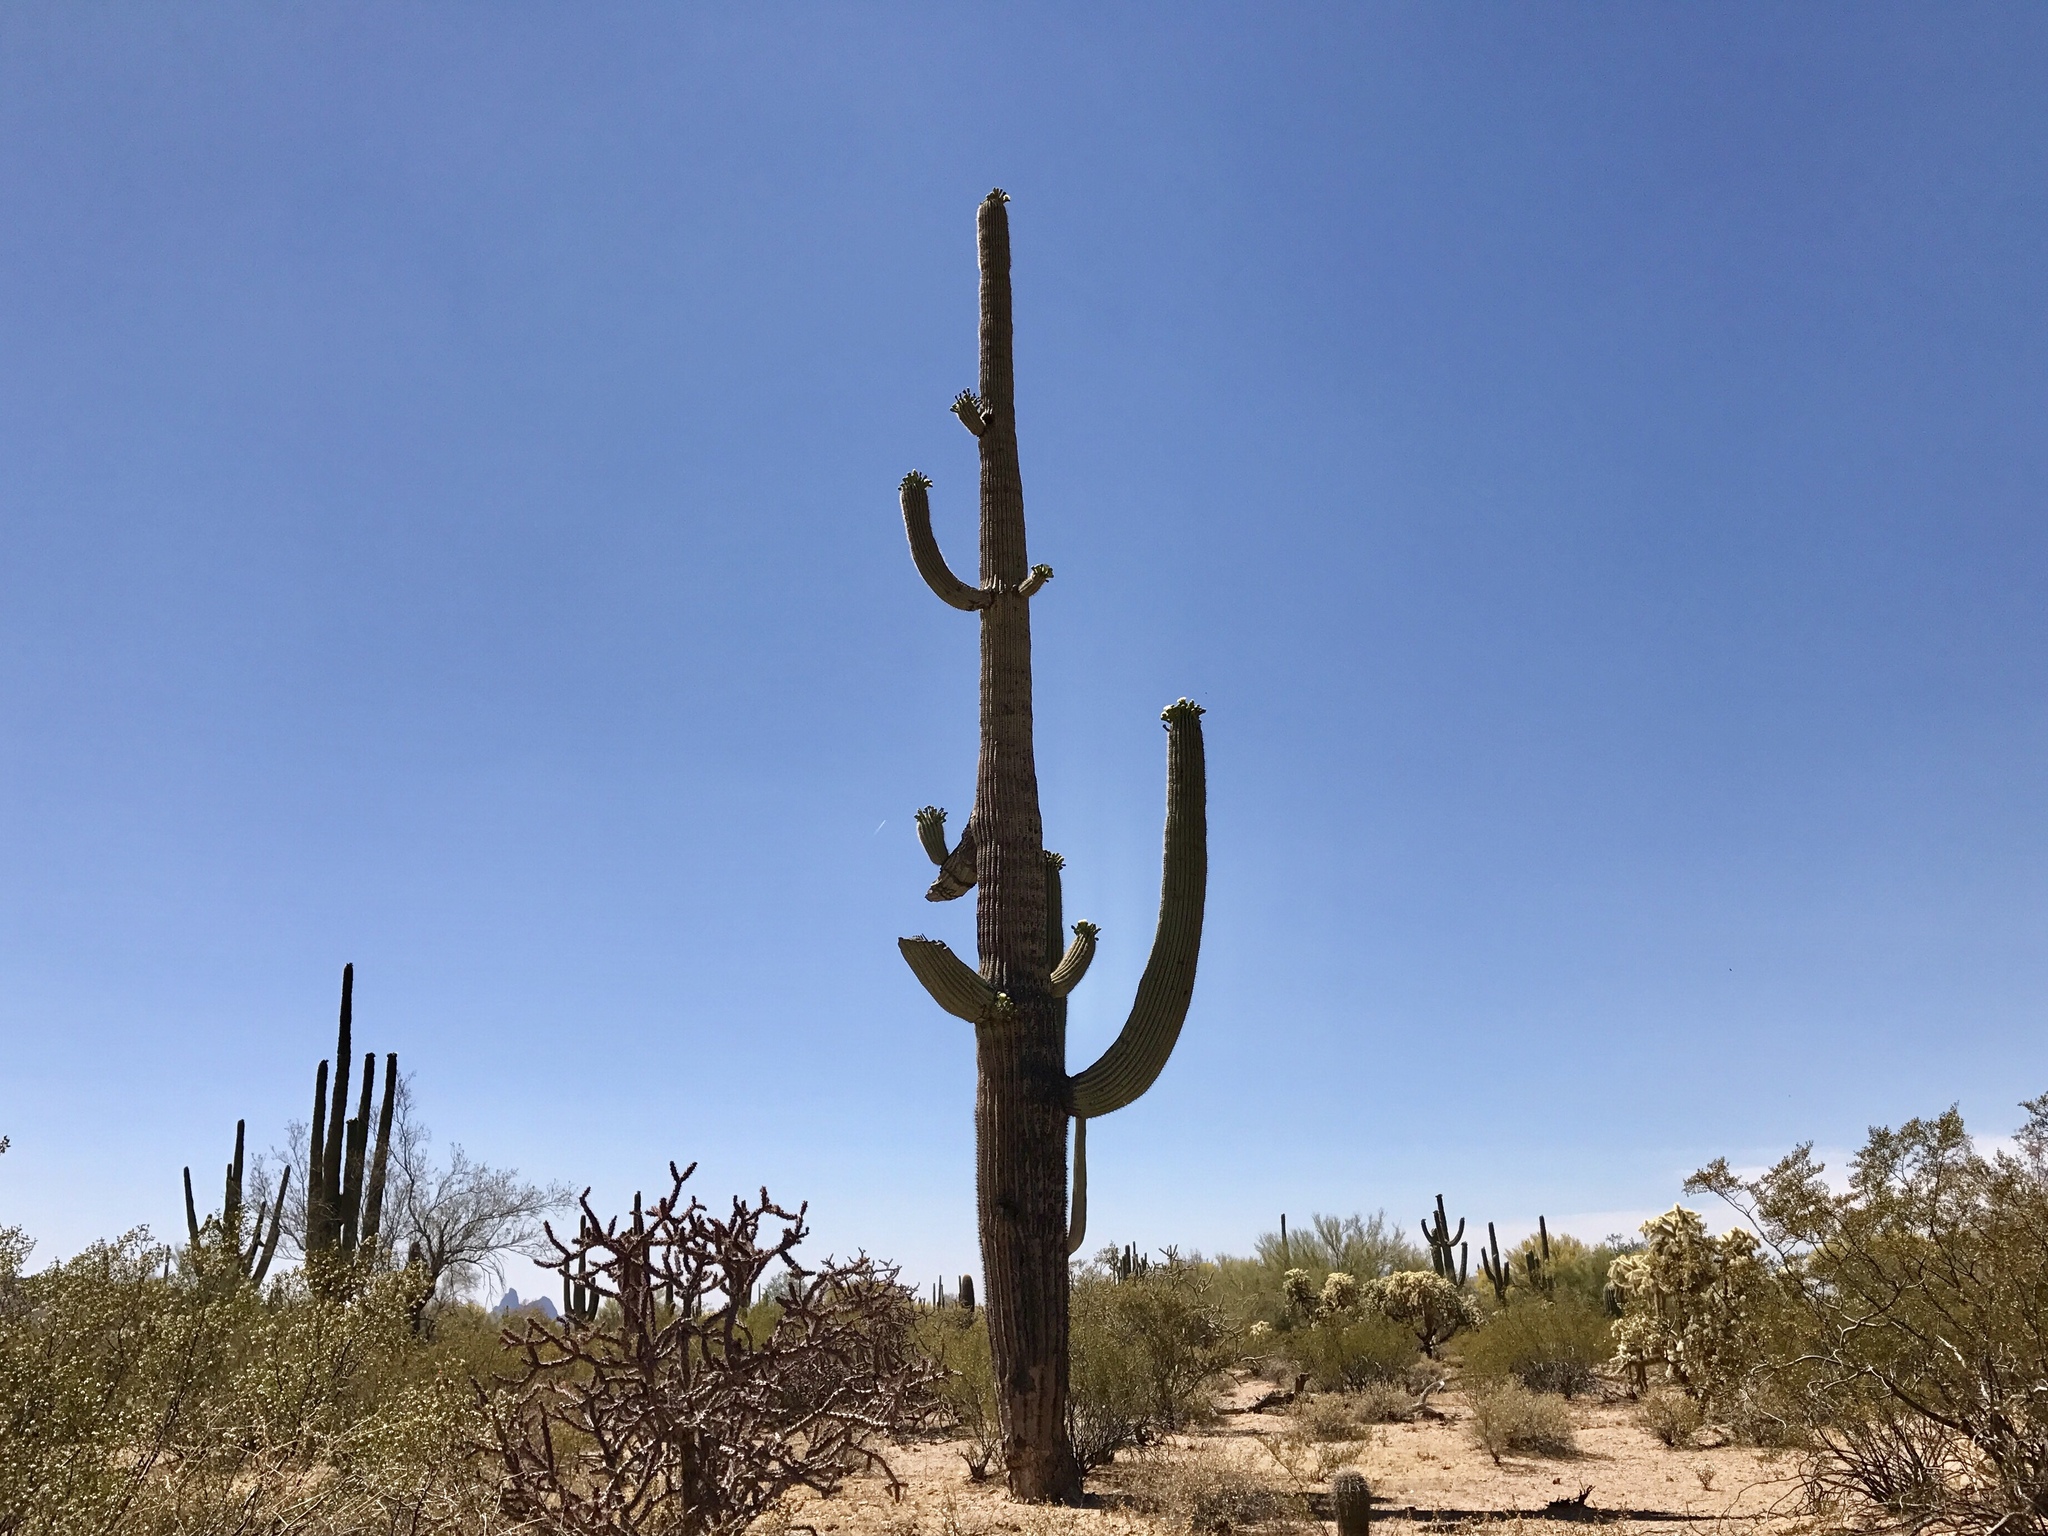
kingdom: Plantae
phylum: Tracheophyta
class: Magnoliopsida
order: Caryophyllales
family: Cactaceae
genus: Carnegiea
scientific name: Carnegiea gigantea
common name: Saguaro
